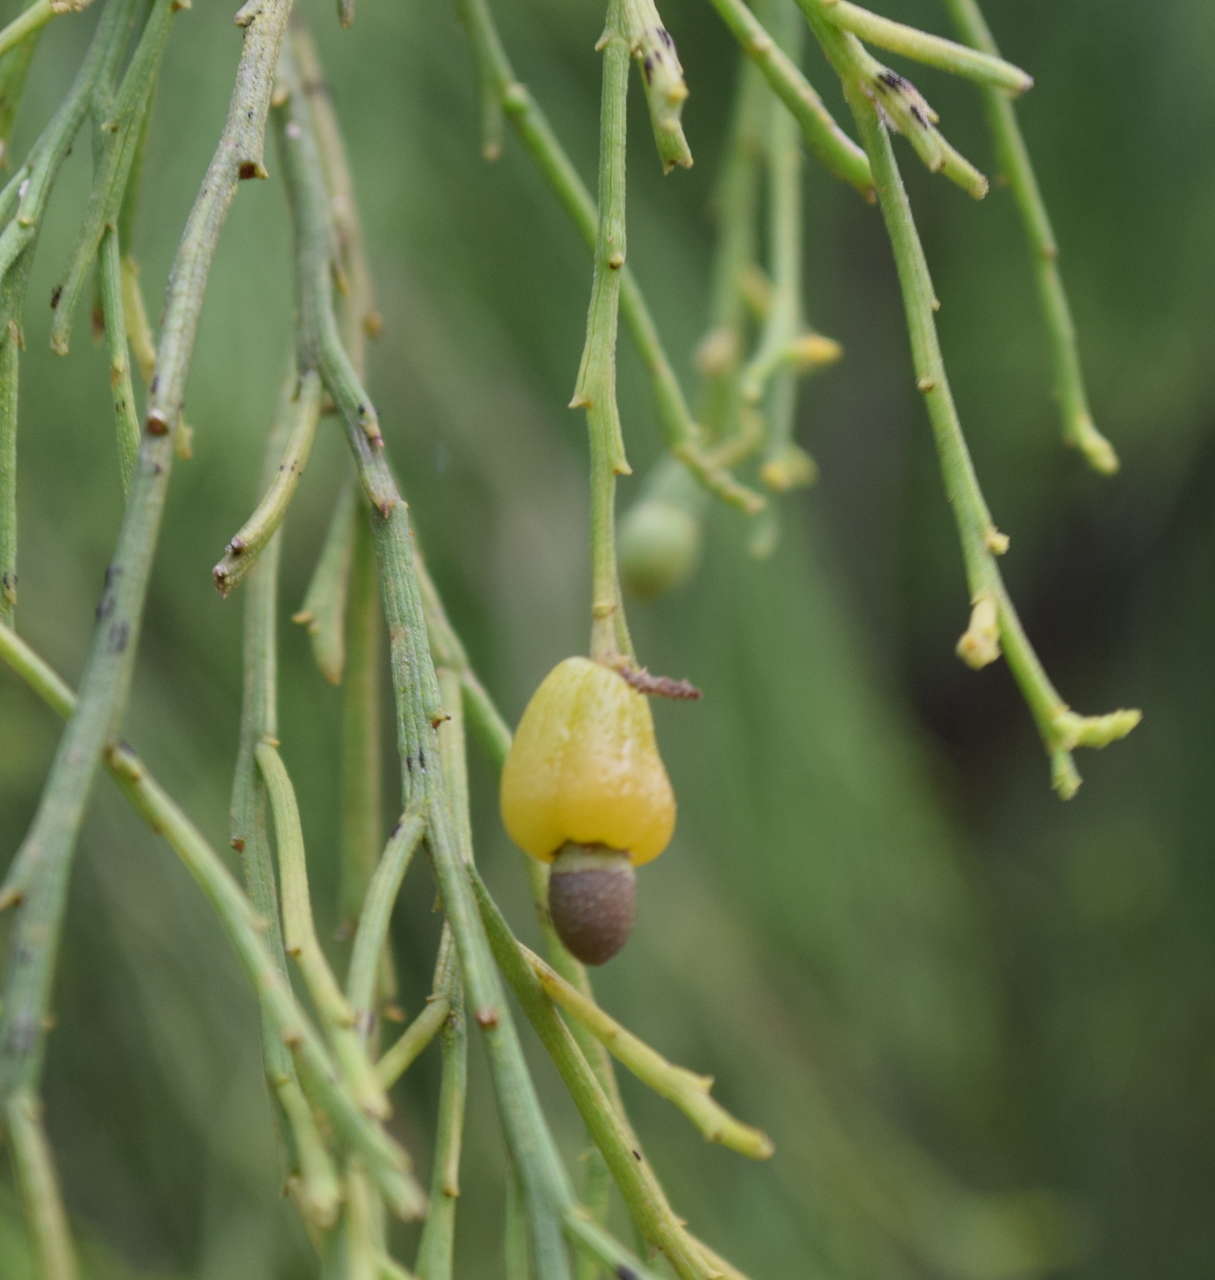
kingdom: Plantae
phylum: Tracheophyta
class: Magnoliopsida
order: Santalales
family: Santalaceae
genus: Exocarpos
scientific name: Exocarpos cupressiformis
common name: Cherry ballart
